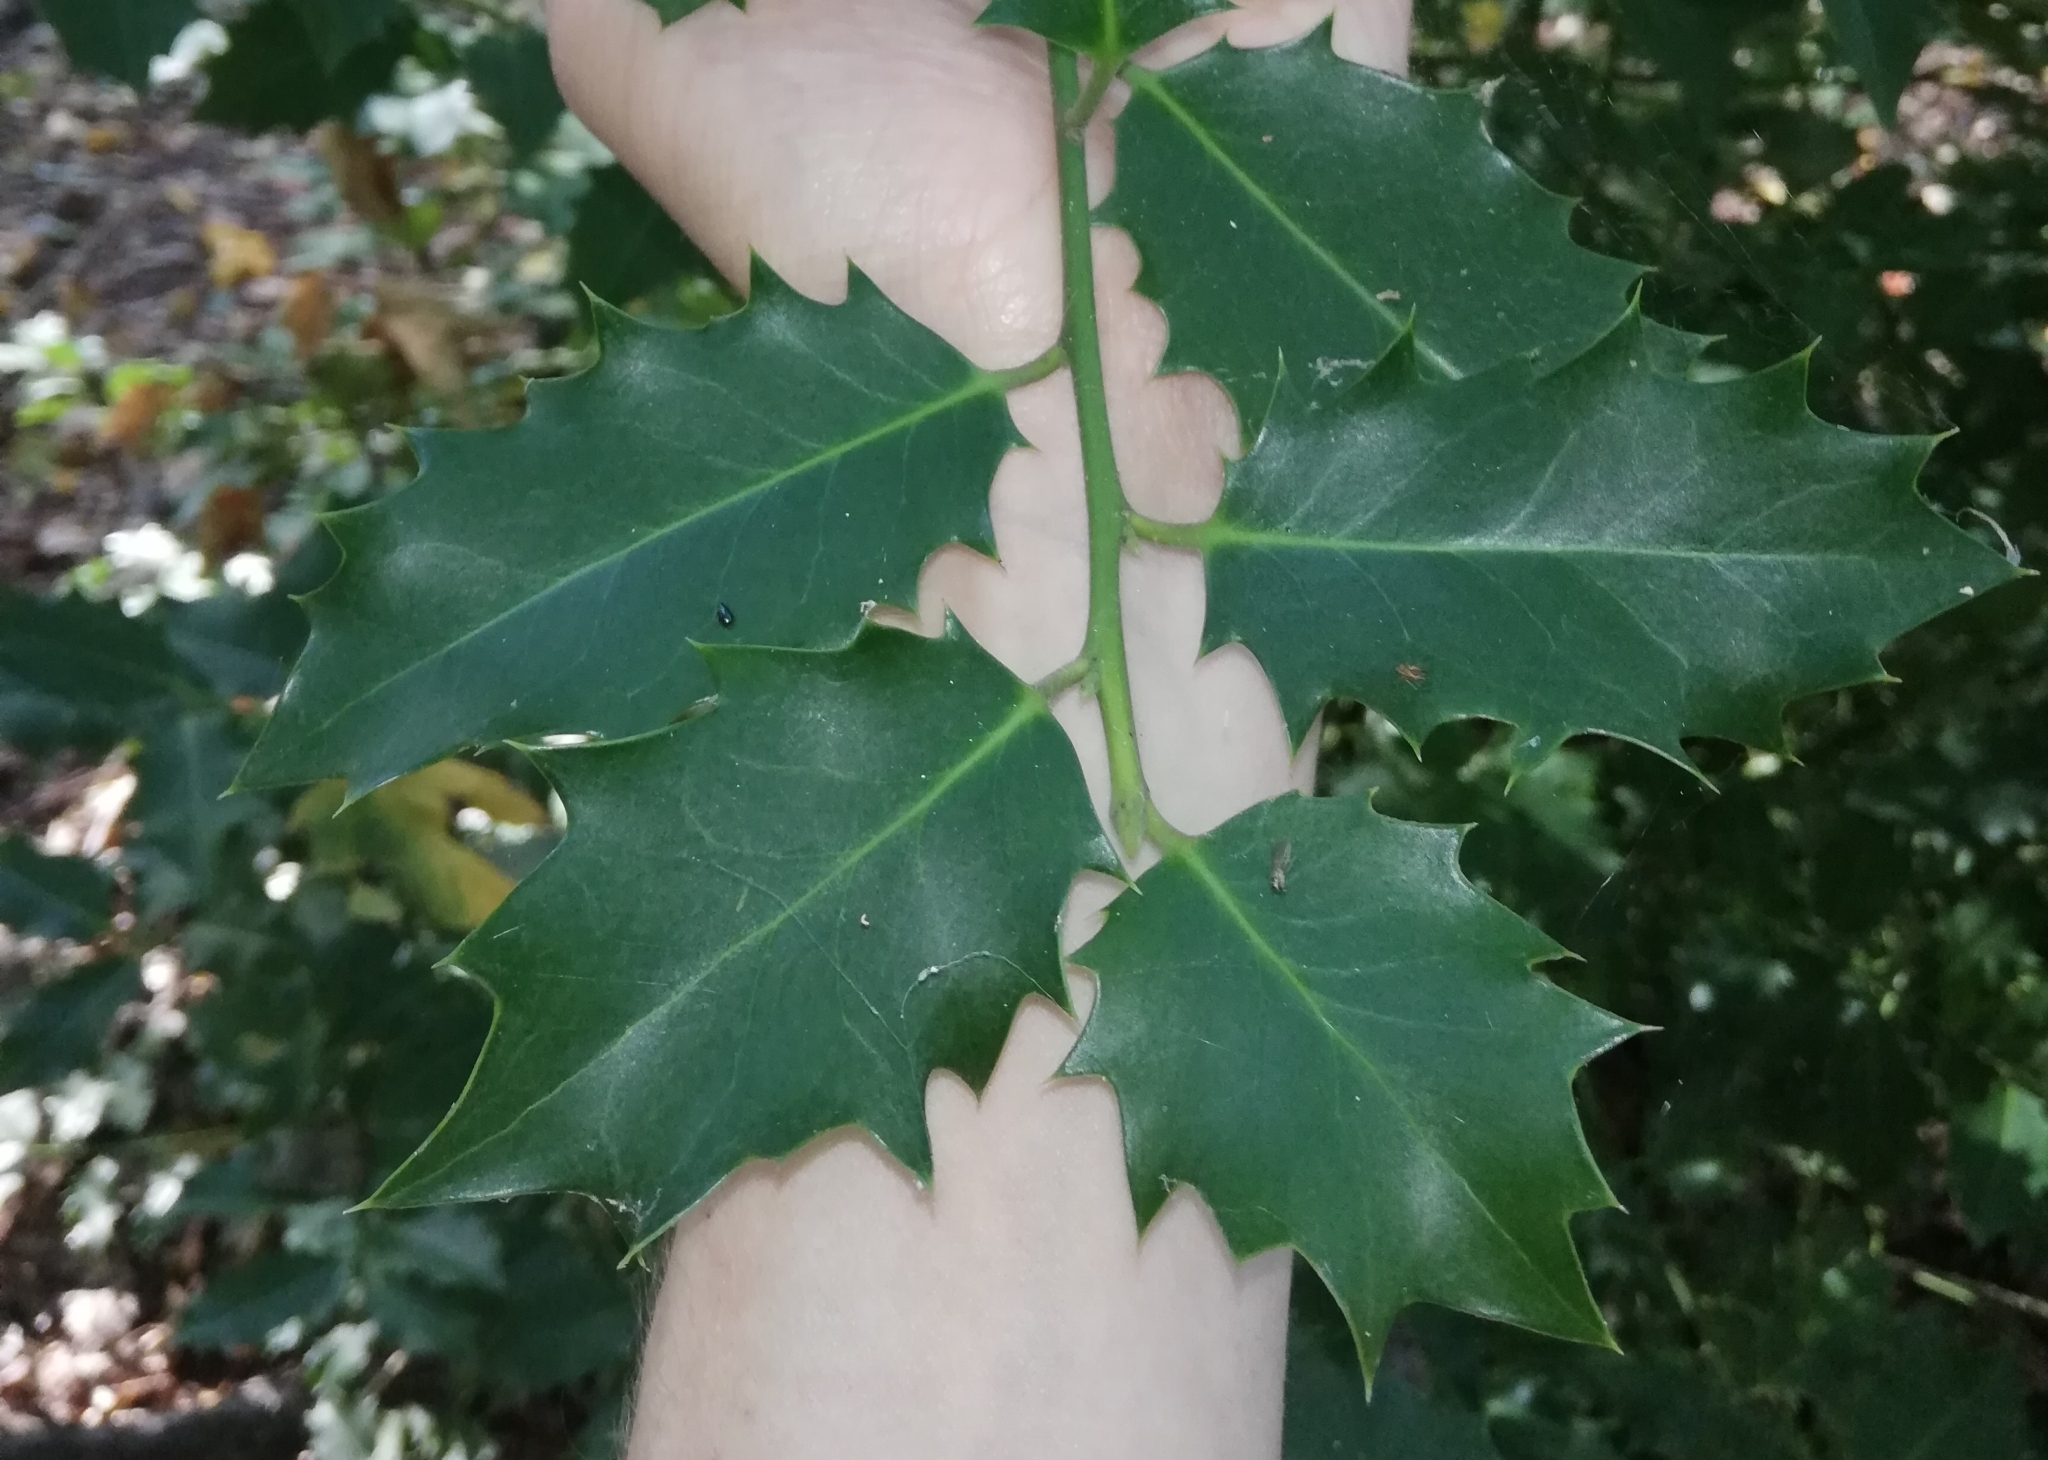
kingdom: Plantae
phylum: Tracheophyta
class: Magnoliopsida
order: Aquifoliales
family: Aquifoliaceae
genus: Ilex
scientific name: Ilex aquifolium
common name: English holly
